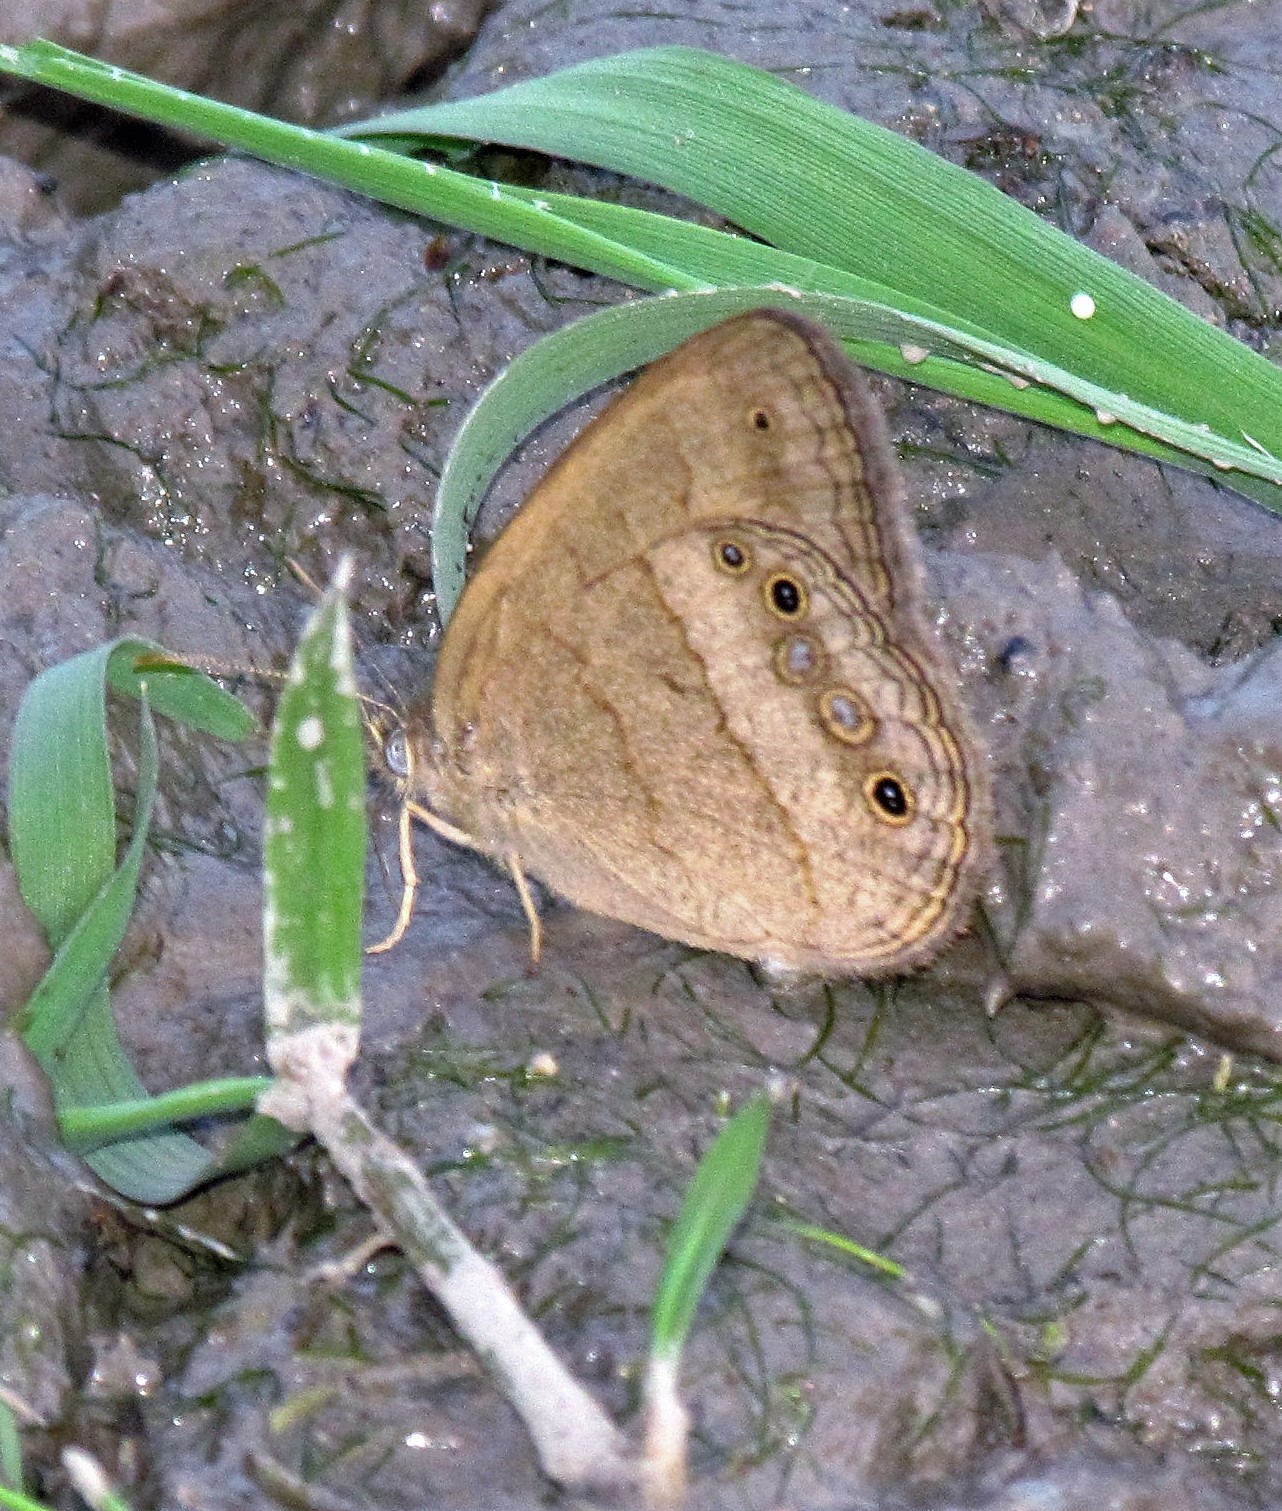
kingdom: Animalia
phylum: Arthropoda
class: Insecta
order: Lepidoptera
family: Nymphalidae
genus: Malaveria
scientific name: Malaveria
